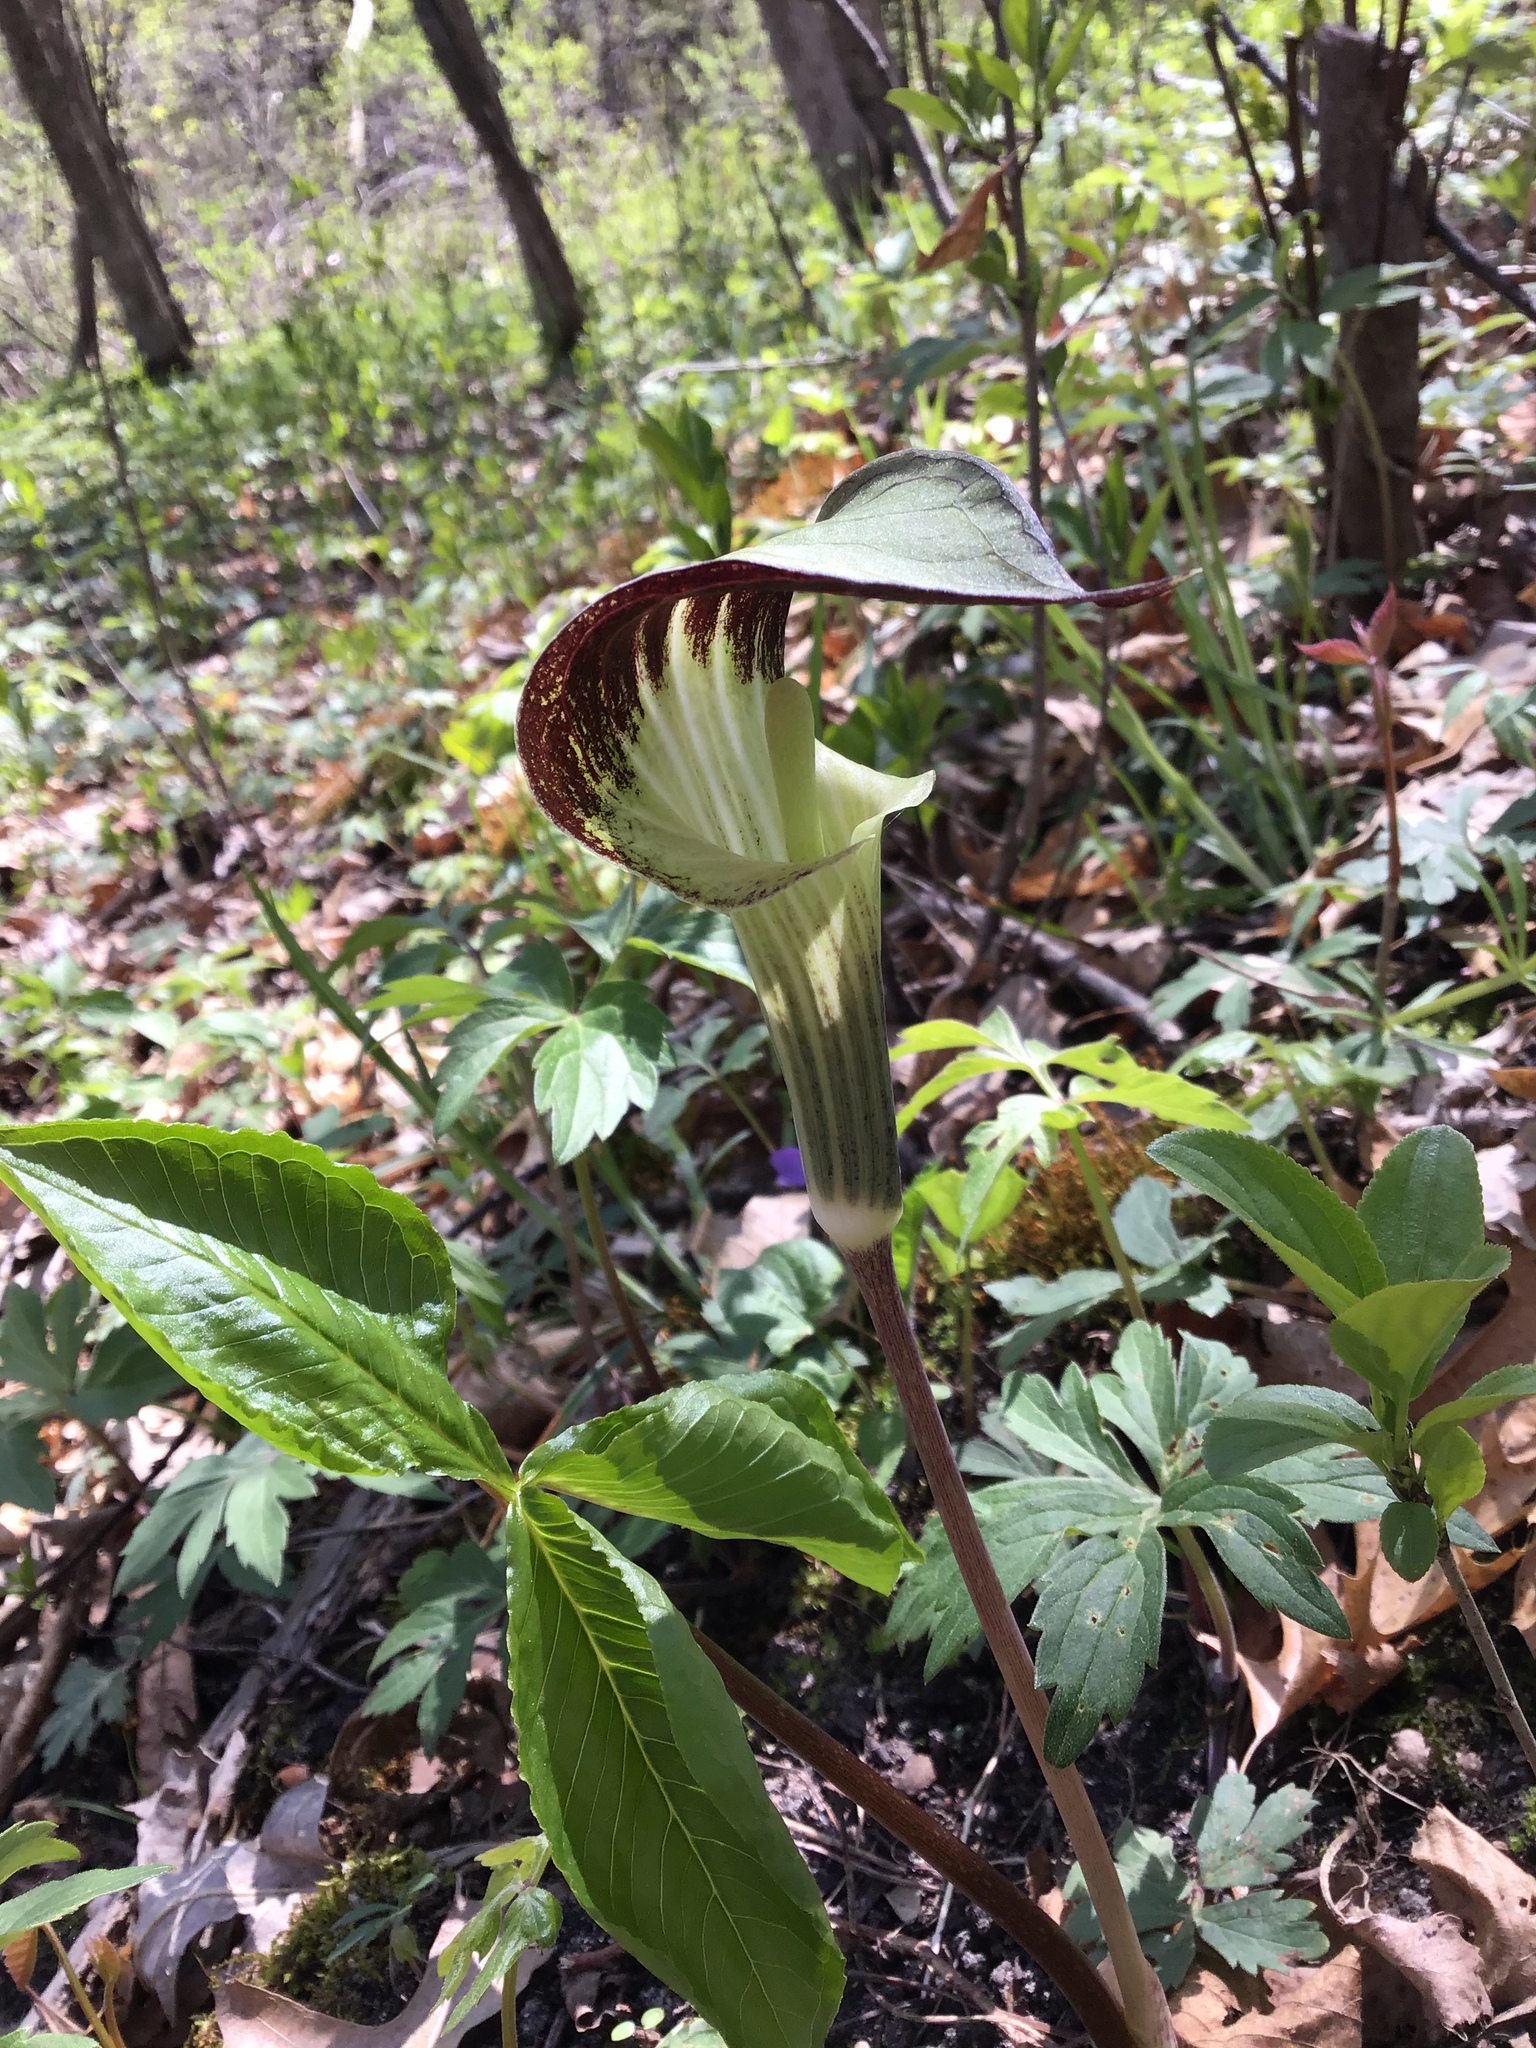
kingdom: Plantae
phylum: Tracheophyta
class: Liliopsida
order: Alismatales
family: Araceae
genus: Arisaema
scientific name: Arisaema triphyllum
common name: Jack-in-the-pulpit
